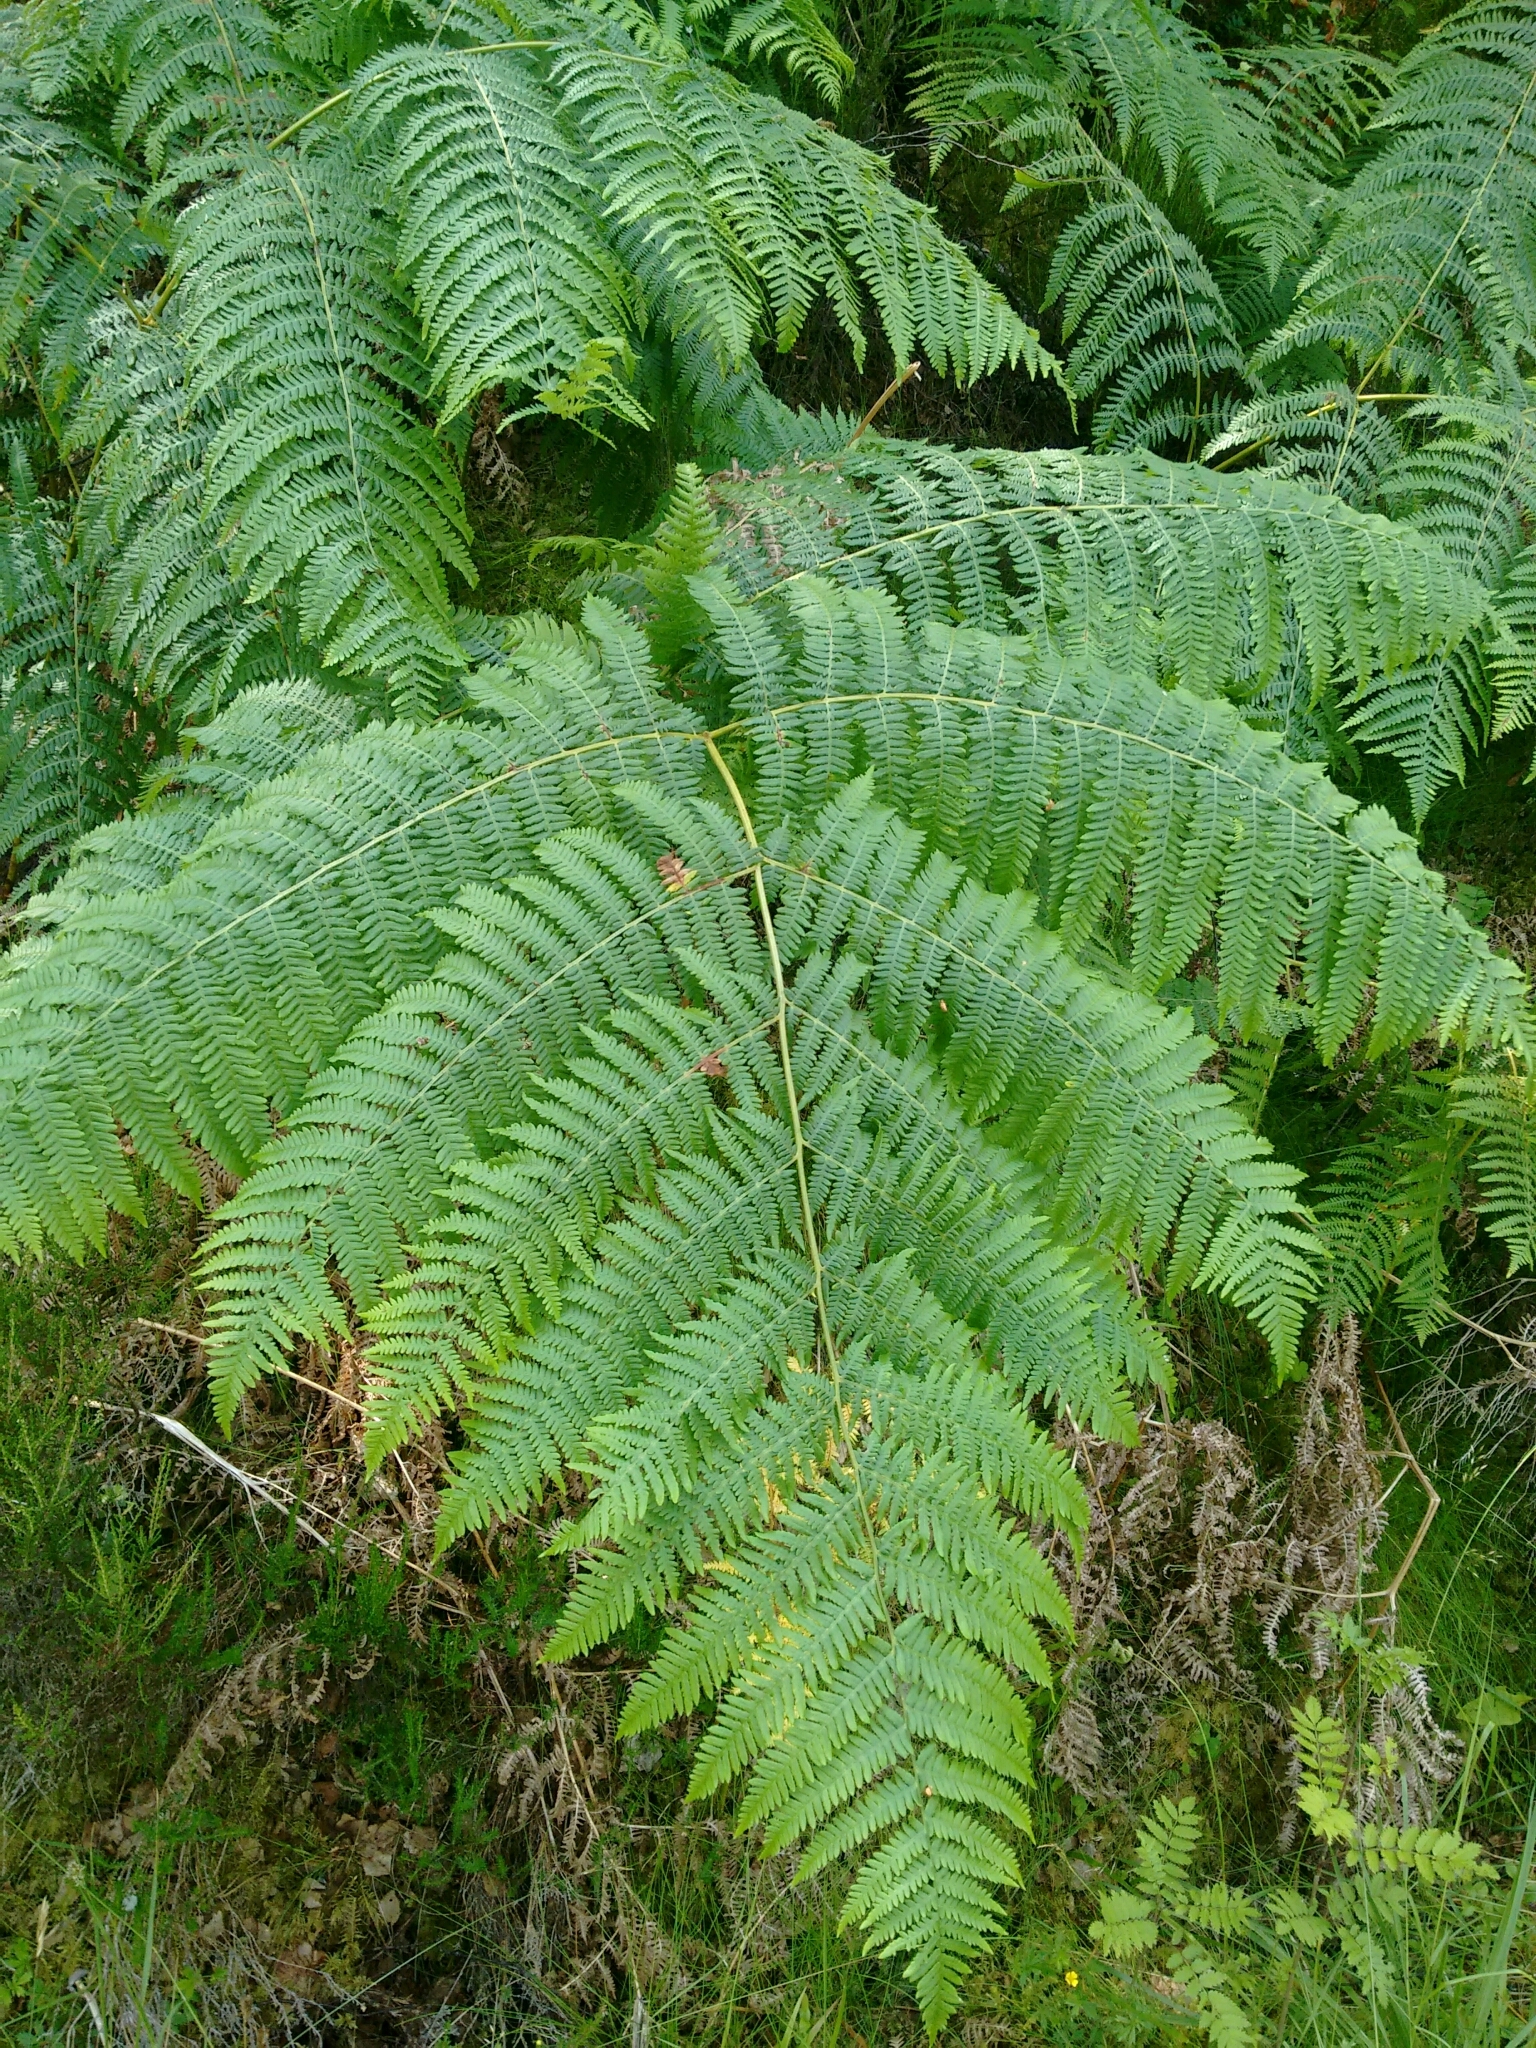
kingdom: Plantae
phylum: Tracheophyta
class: Polypodiopsida
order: Polypodiales
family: Dennstaedtiaceae
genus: Pteridium
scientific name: Pteridium aquilinum
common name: Bracken
